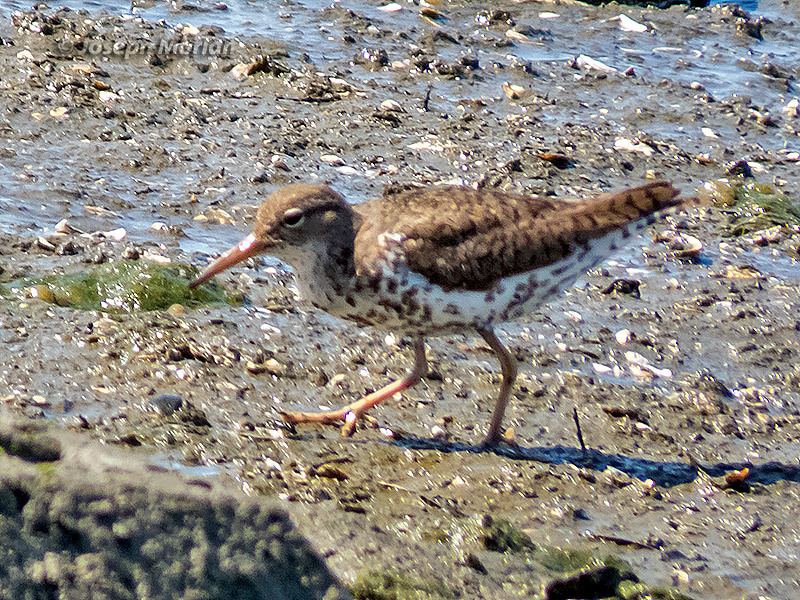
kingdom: Animalia
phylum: Chordata
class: Aves
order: Charadriiformes
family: Scolopacidae
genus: Actitis
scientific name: Actitis macularius
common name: Spotted sandpiper
